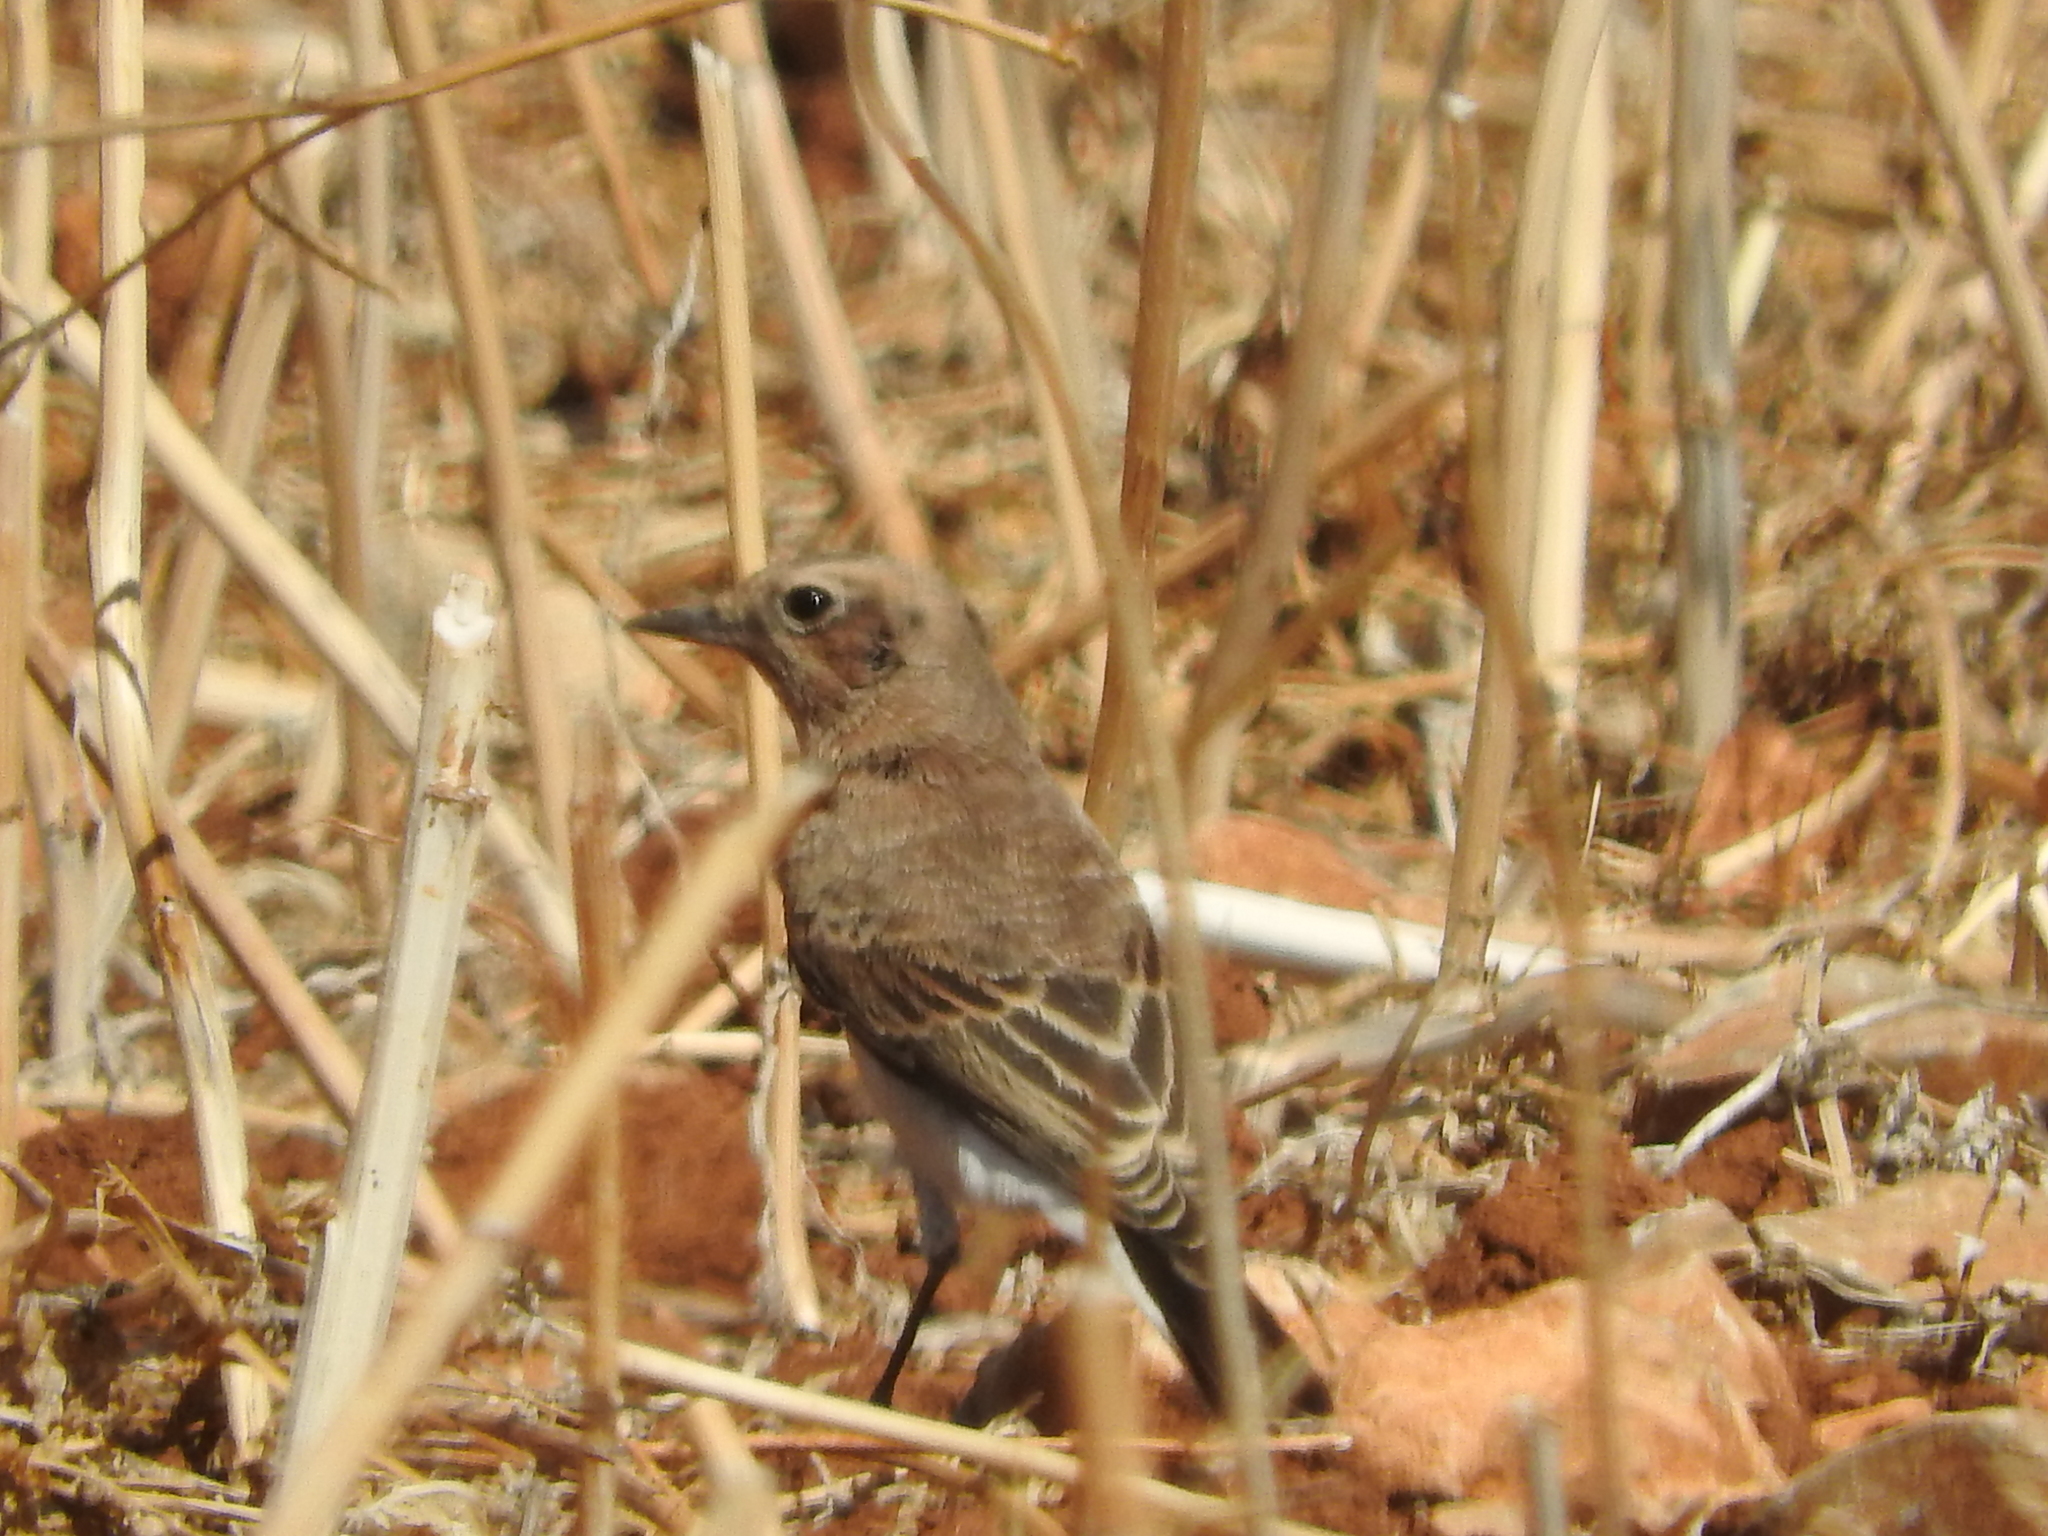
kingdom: Animalia
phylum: Chordata
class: Aves
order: Passeriformes
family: Muscicapidae
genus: Oenanthe
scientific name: Oenanthe hispanica
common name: Black-eared wheatear
